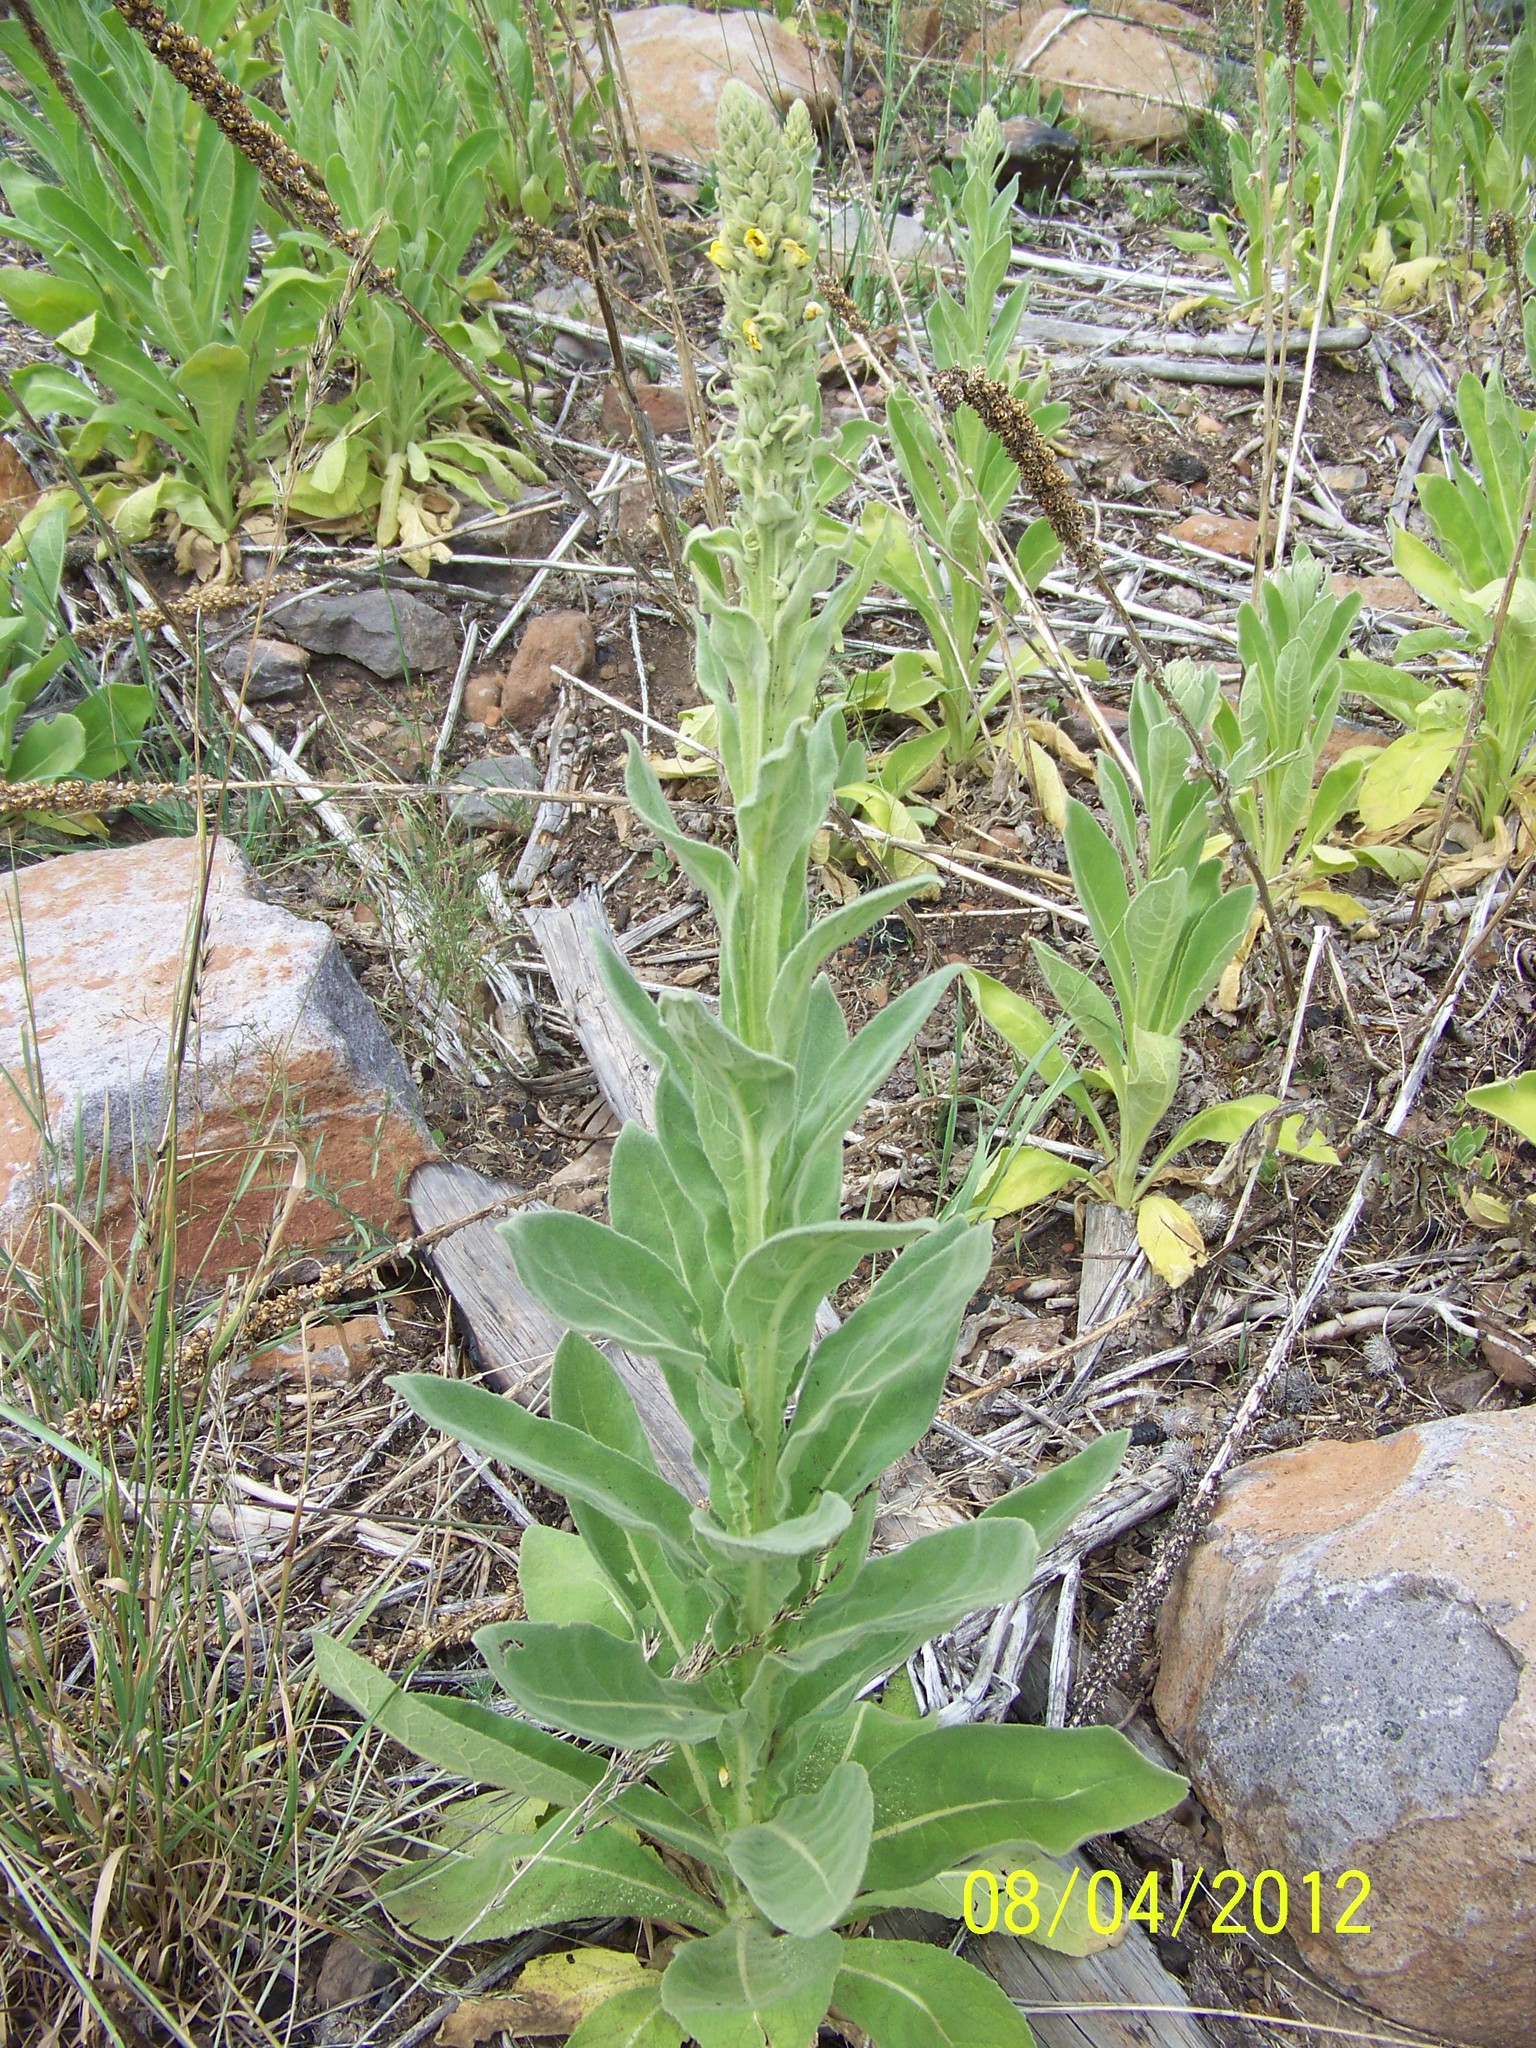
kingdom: Plantae
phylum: Tracheophyta
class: Magnoliopsida
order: Lamiales
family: Scrophulariaceae
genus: Verbascum
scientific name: Verbascum thapsus
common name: Common mullein
